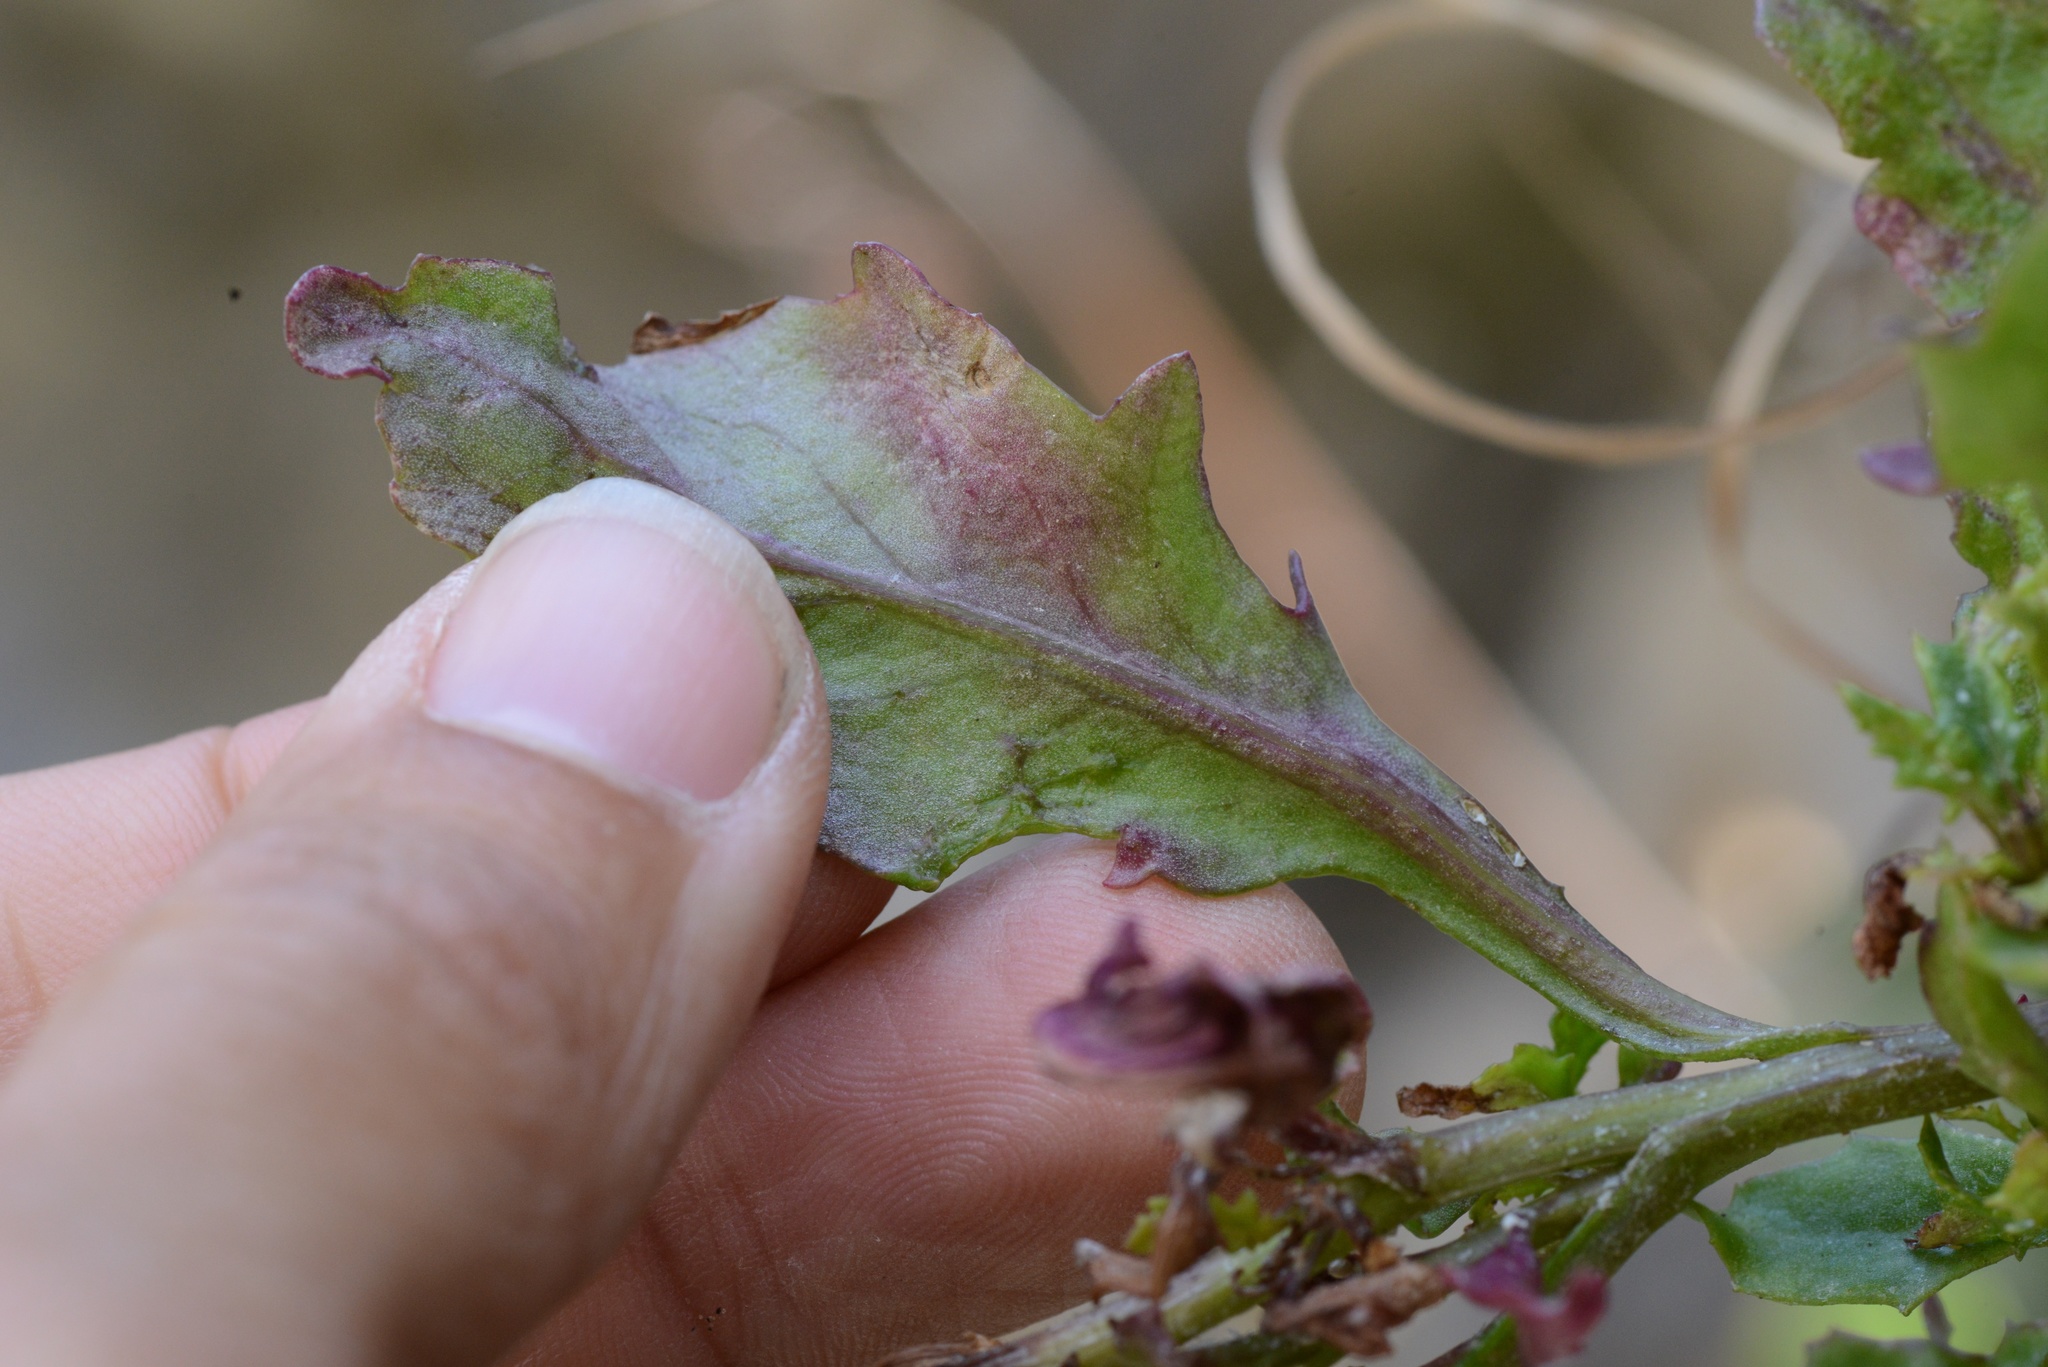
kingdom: Plantae
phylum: Tracheophyta
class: Magnoliopsida
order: Asterales
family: Asteraceae
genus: Senecio
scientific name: Senecio matatini
